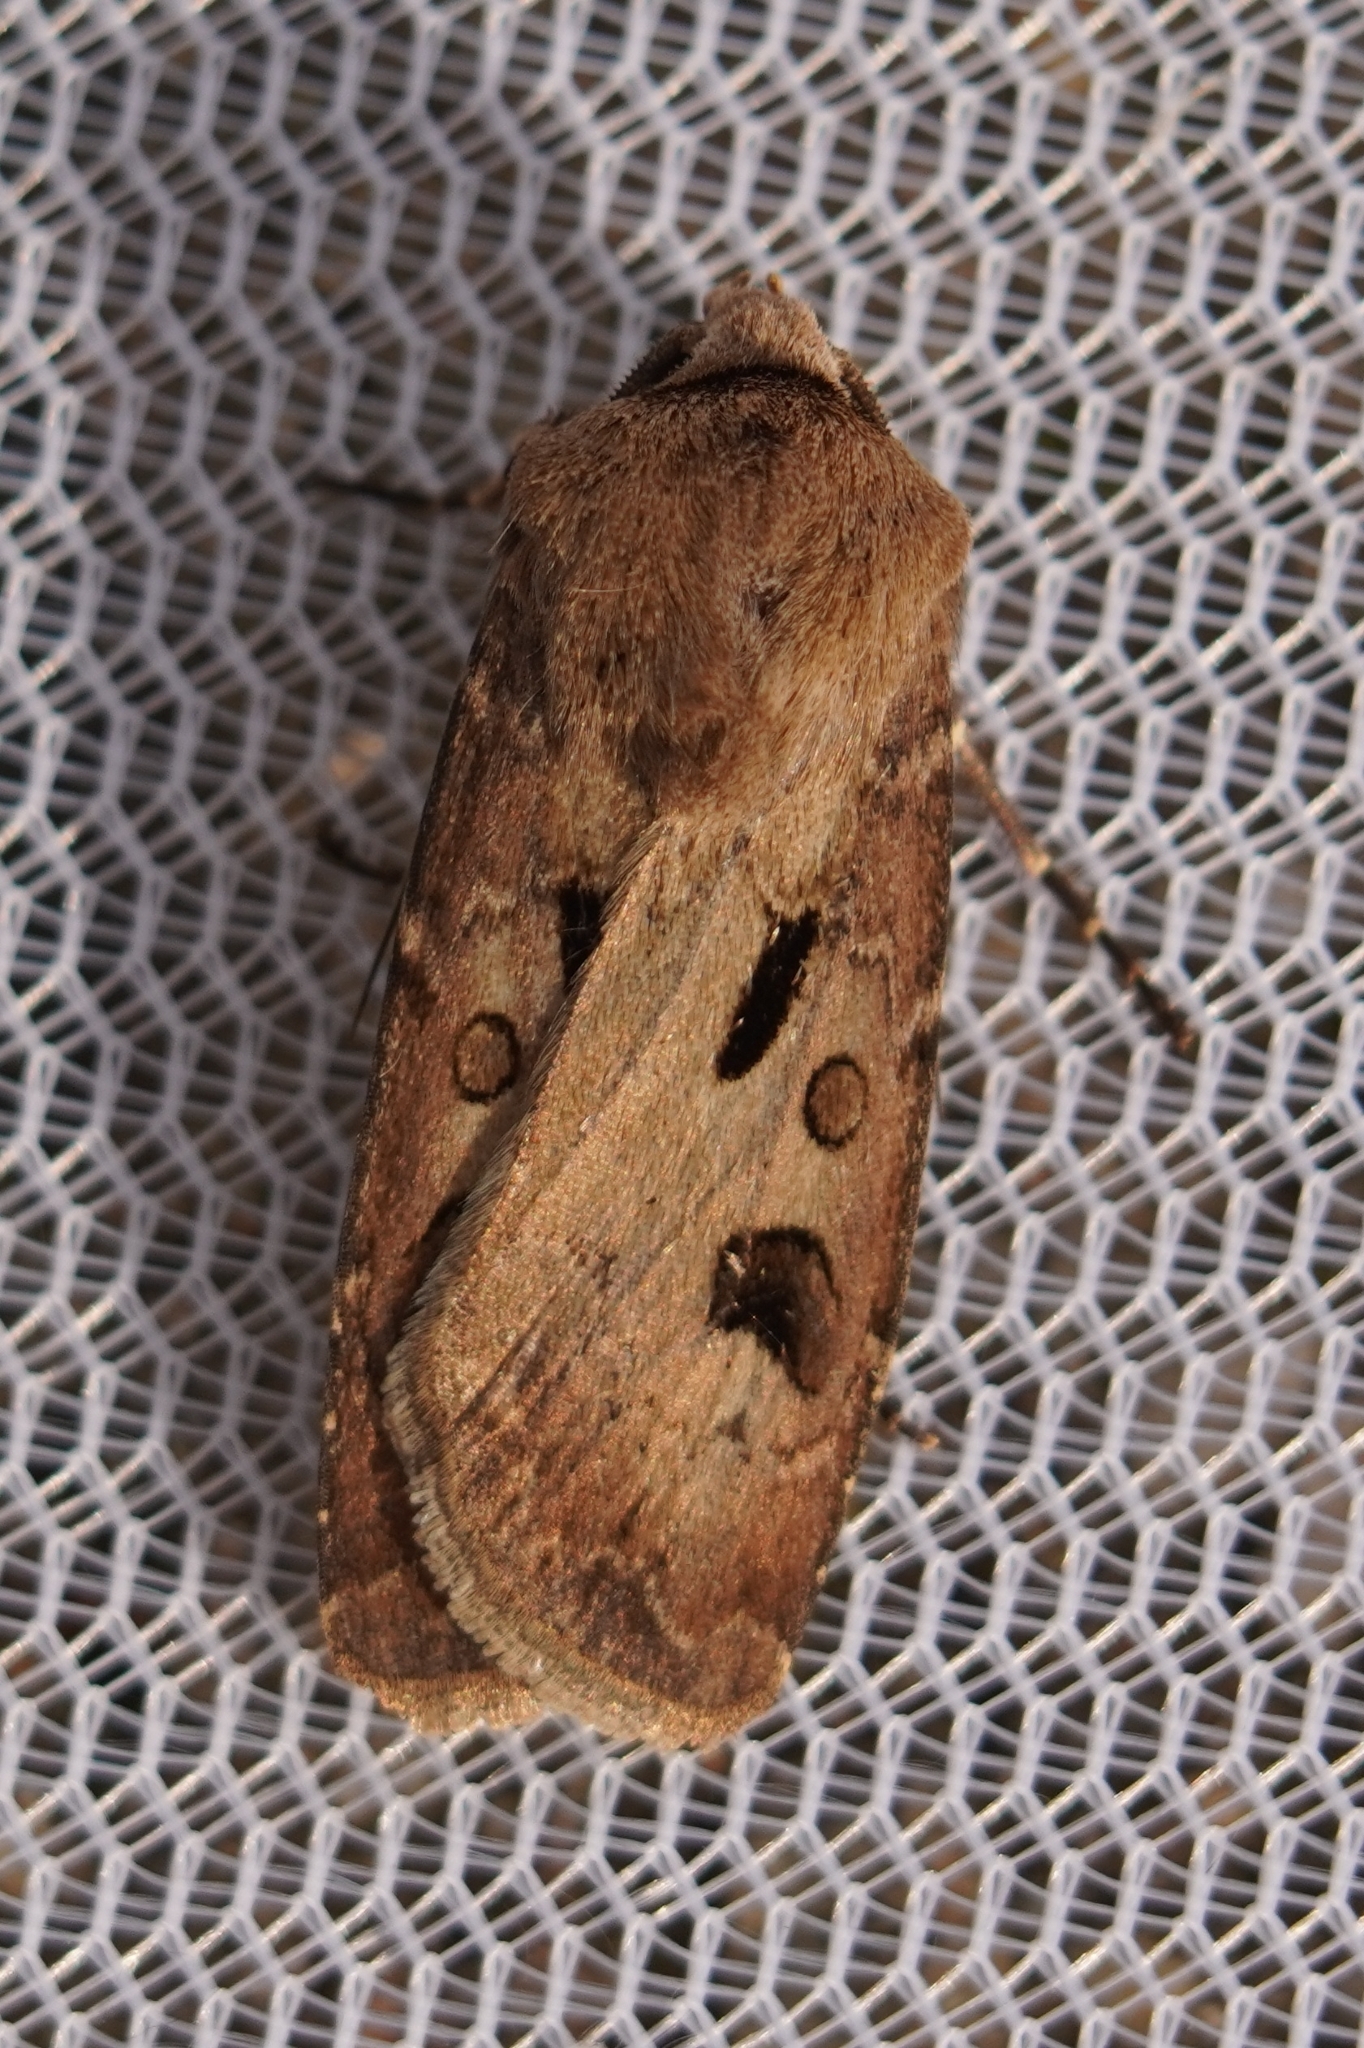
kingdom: Animalia
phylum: Arthropoda
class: Insecta
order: Lepidoptera
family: Noctuidae
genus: Agrotis
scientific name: Agrotis exclamationis
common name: Heart and dart
